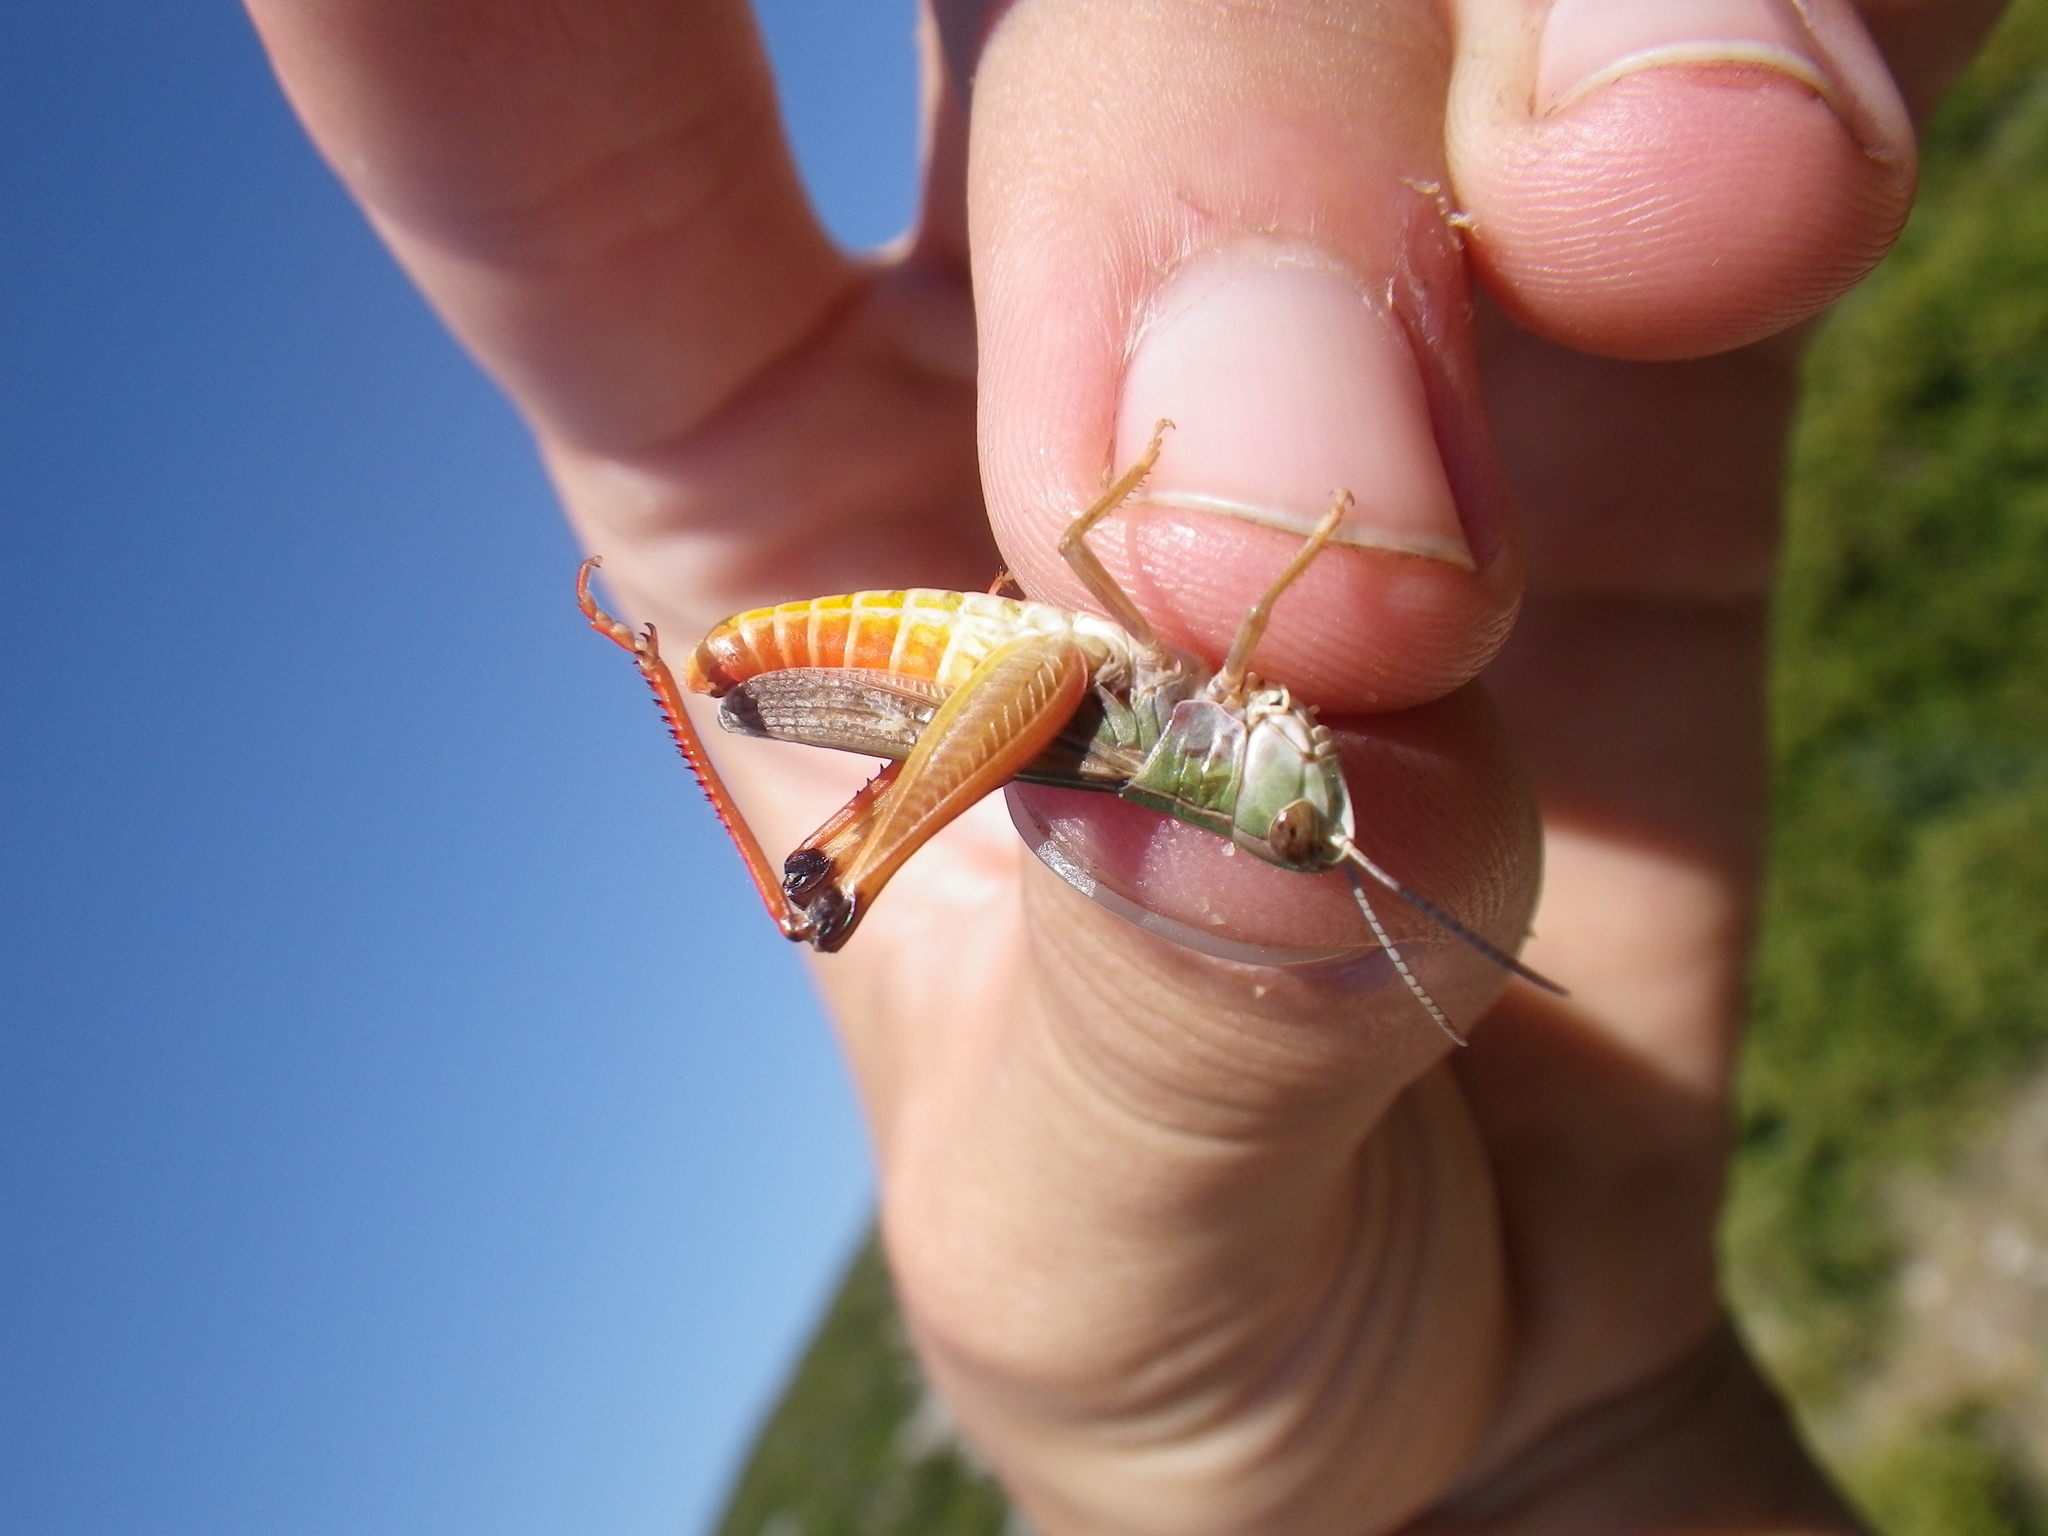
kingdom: Animalia
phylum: Arthropoda
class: Insecta
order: Orthoptera
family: Acrididae
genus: Stenobothrus
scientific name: Stenobothrus fischeri
